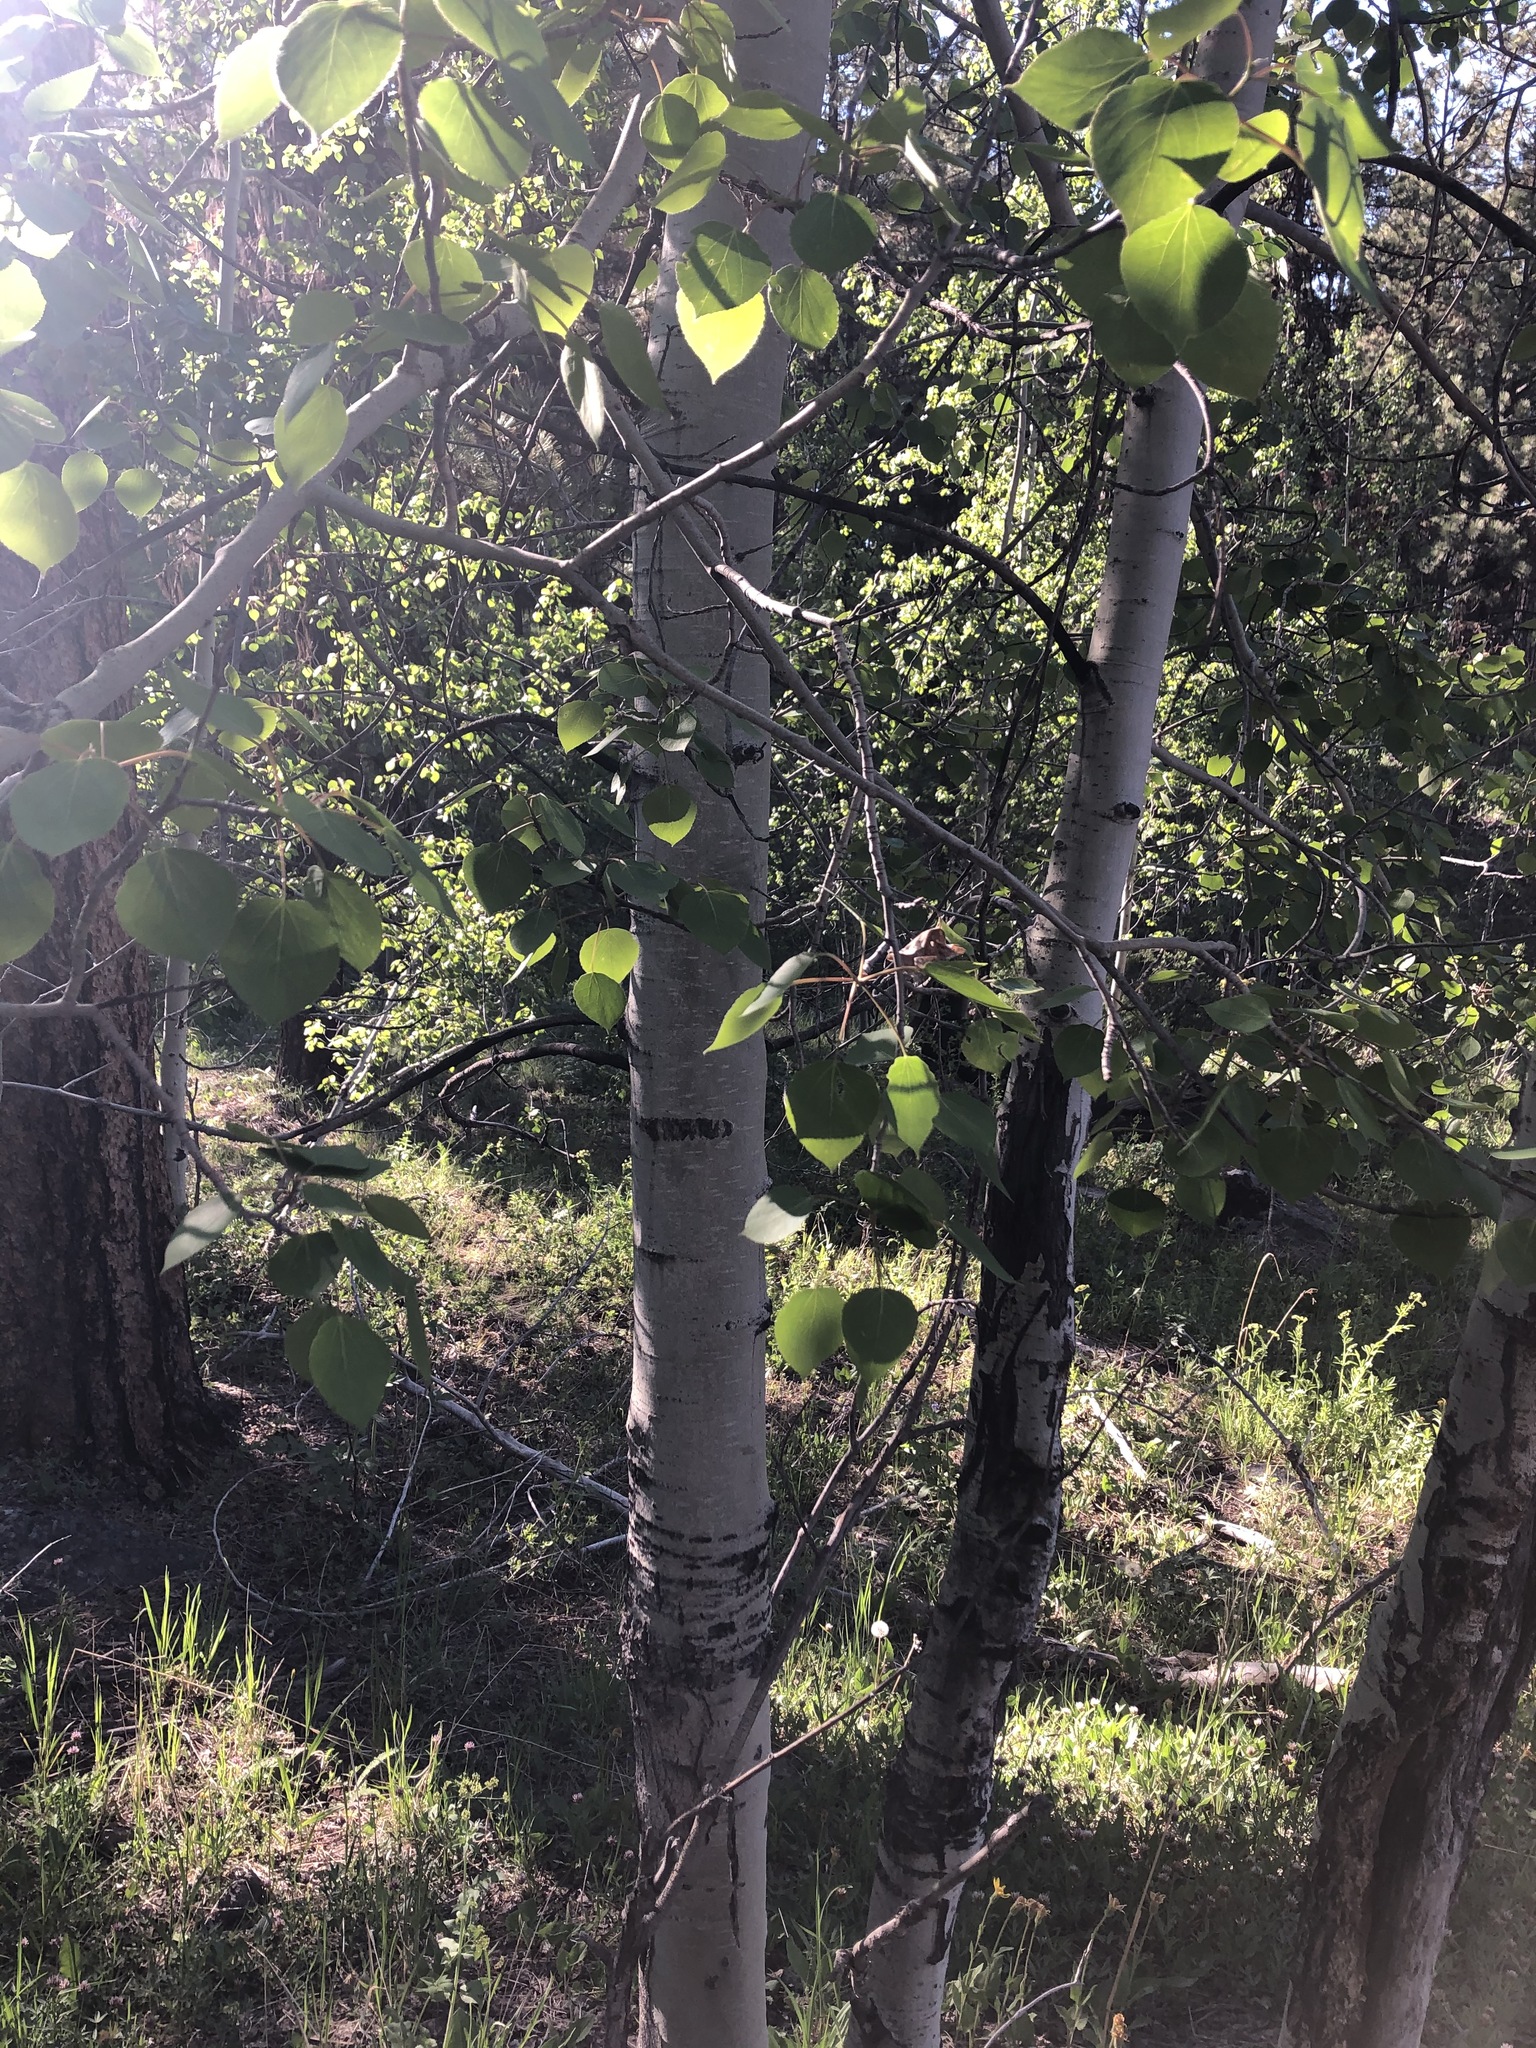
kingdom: Plantae
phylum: Tracheophyta
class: Magnoliopsida
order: Malpighiales
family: Salicaceae
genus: Populus
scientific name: Populus tremuloides
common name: Quaking aspen
